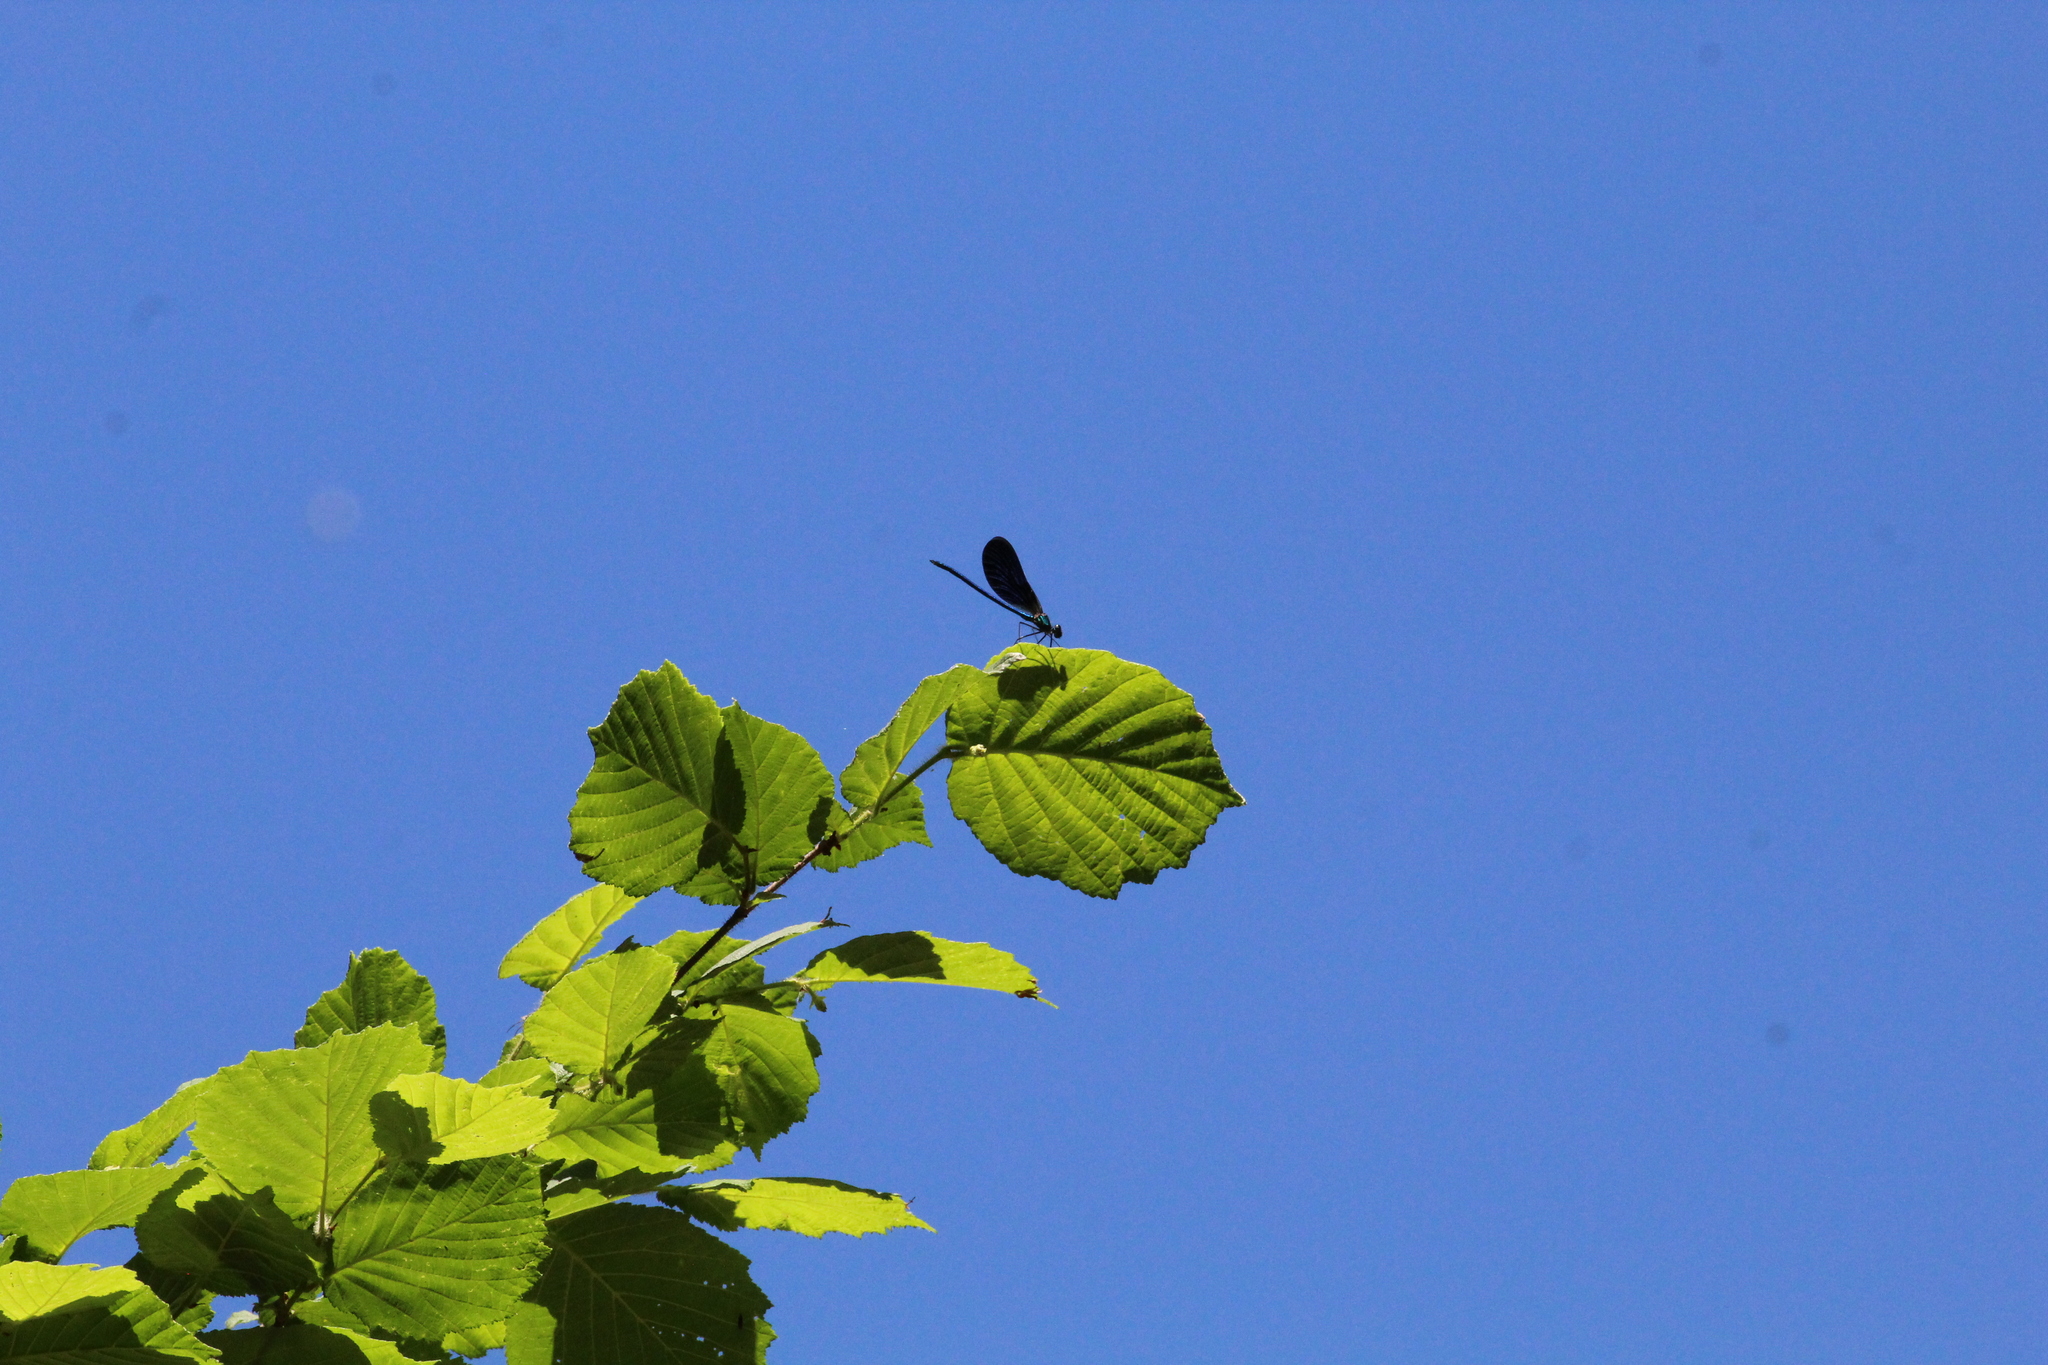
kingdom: Animalia
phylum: Arthropoda
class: Insecta
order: Odonata
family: Calopterygidae
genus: Calopteryx
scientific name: Calopteryx virgo
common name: Beautiful demoiselle
